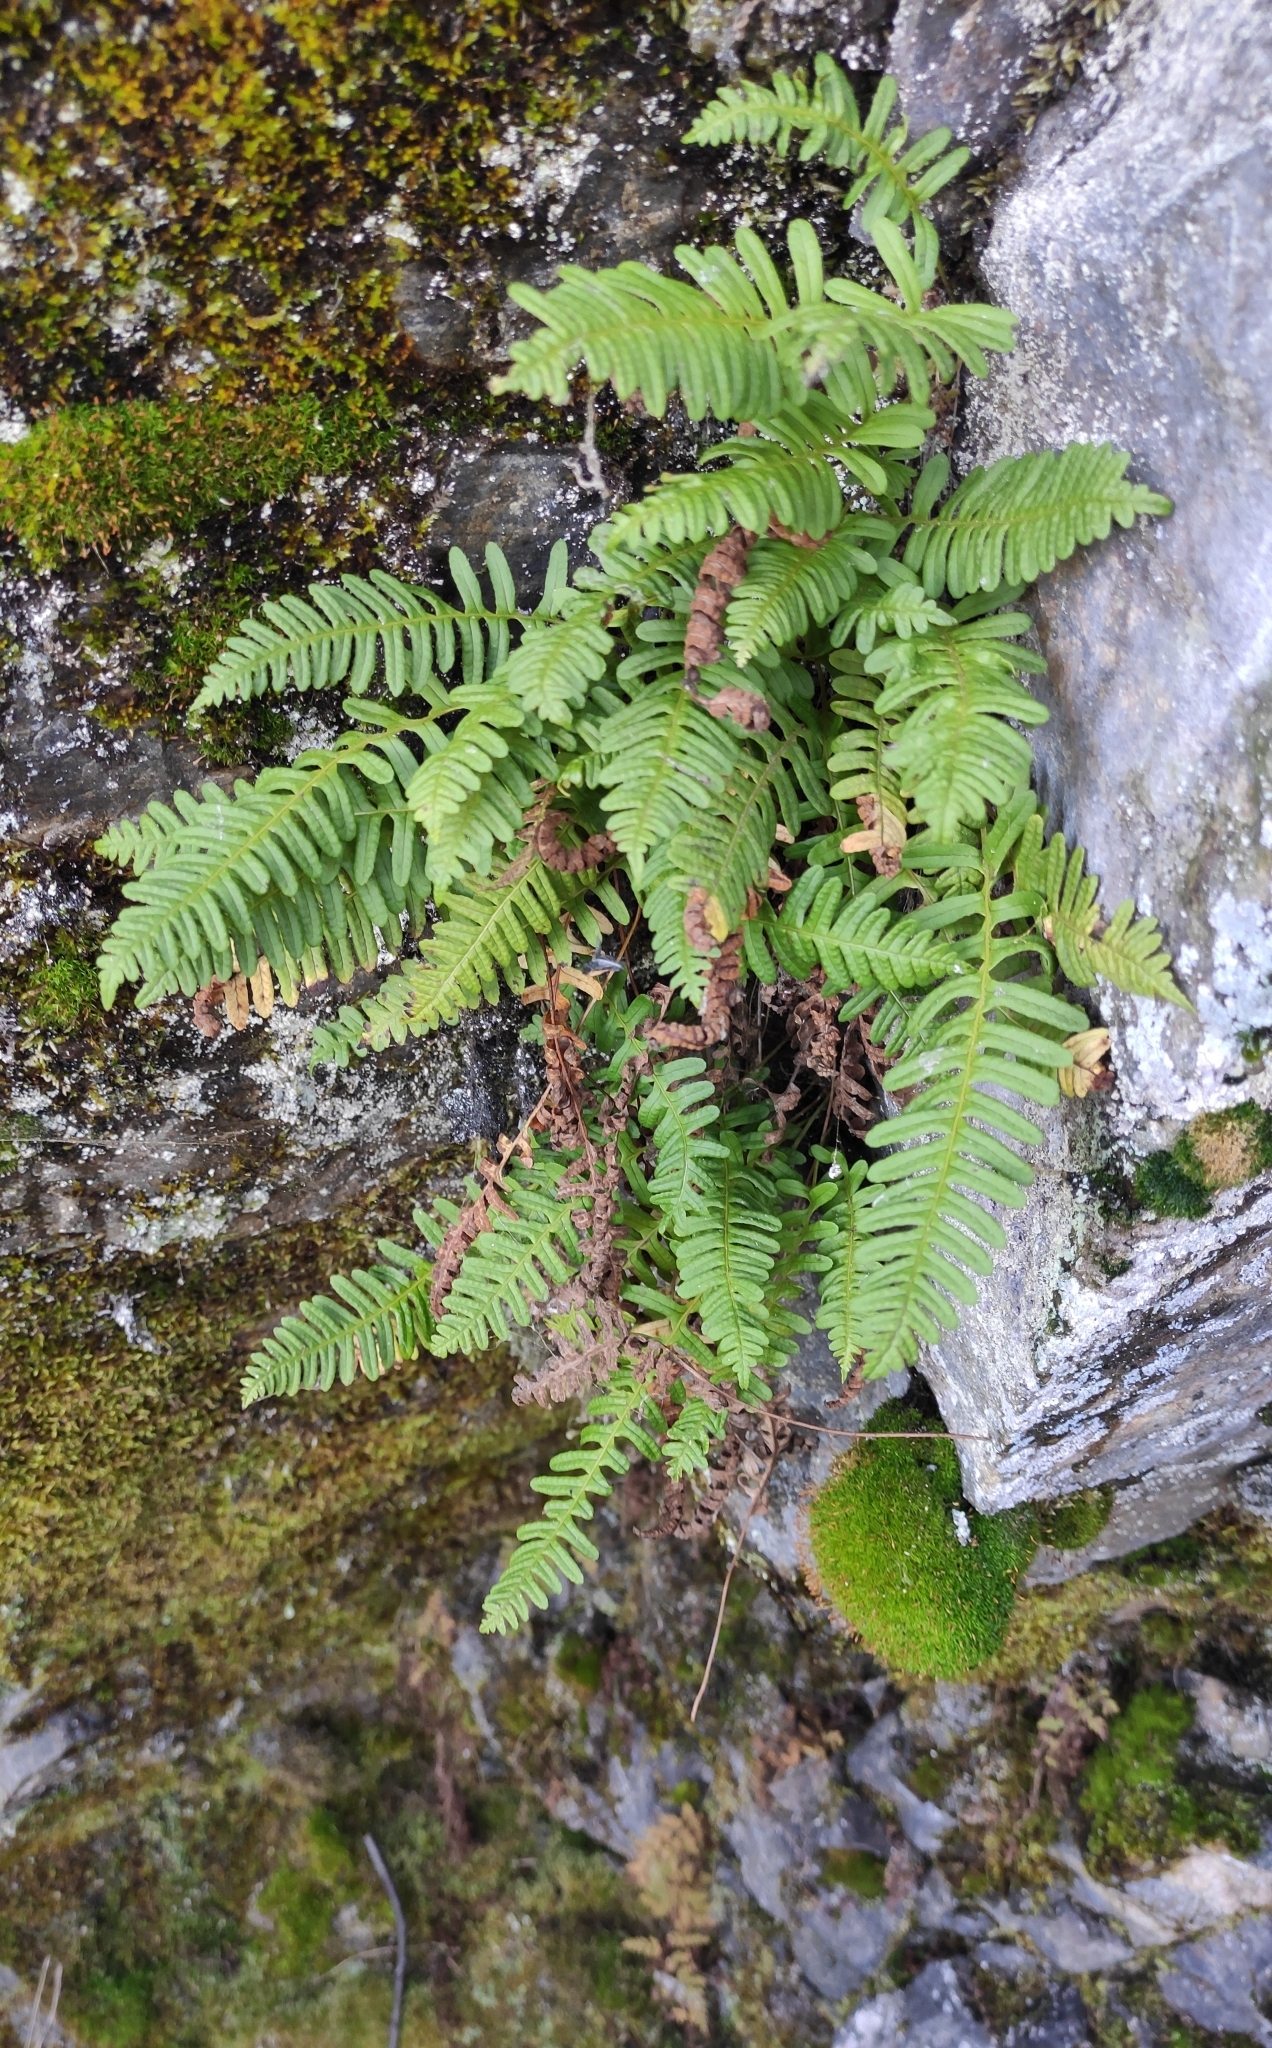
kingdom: Plantae
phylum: Tracheophyta
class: Polypodiopsida
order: Polypodiales
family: Polypodiaceae
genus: Polypodium
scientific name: Polypodium sibiricum
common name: Siberian polypody
